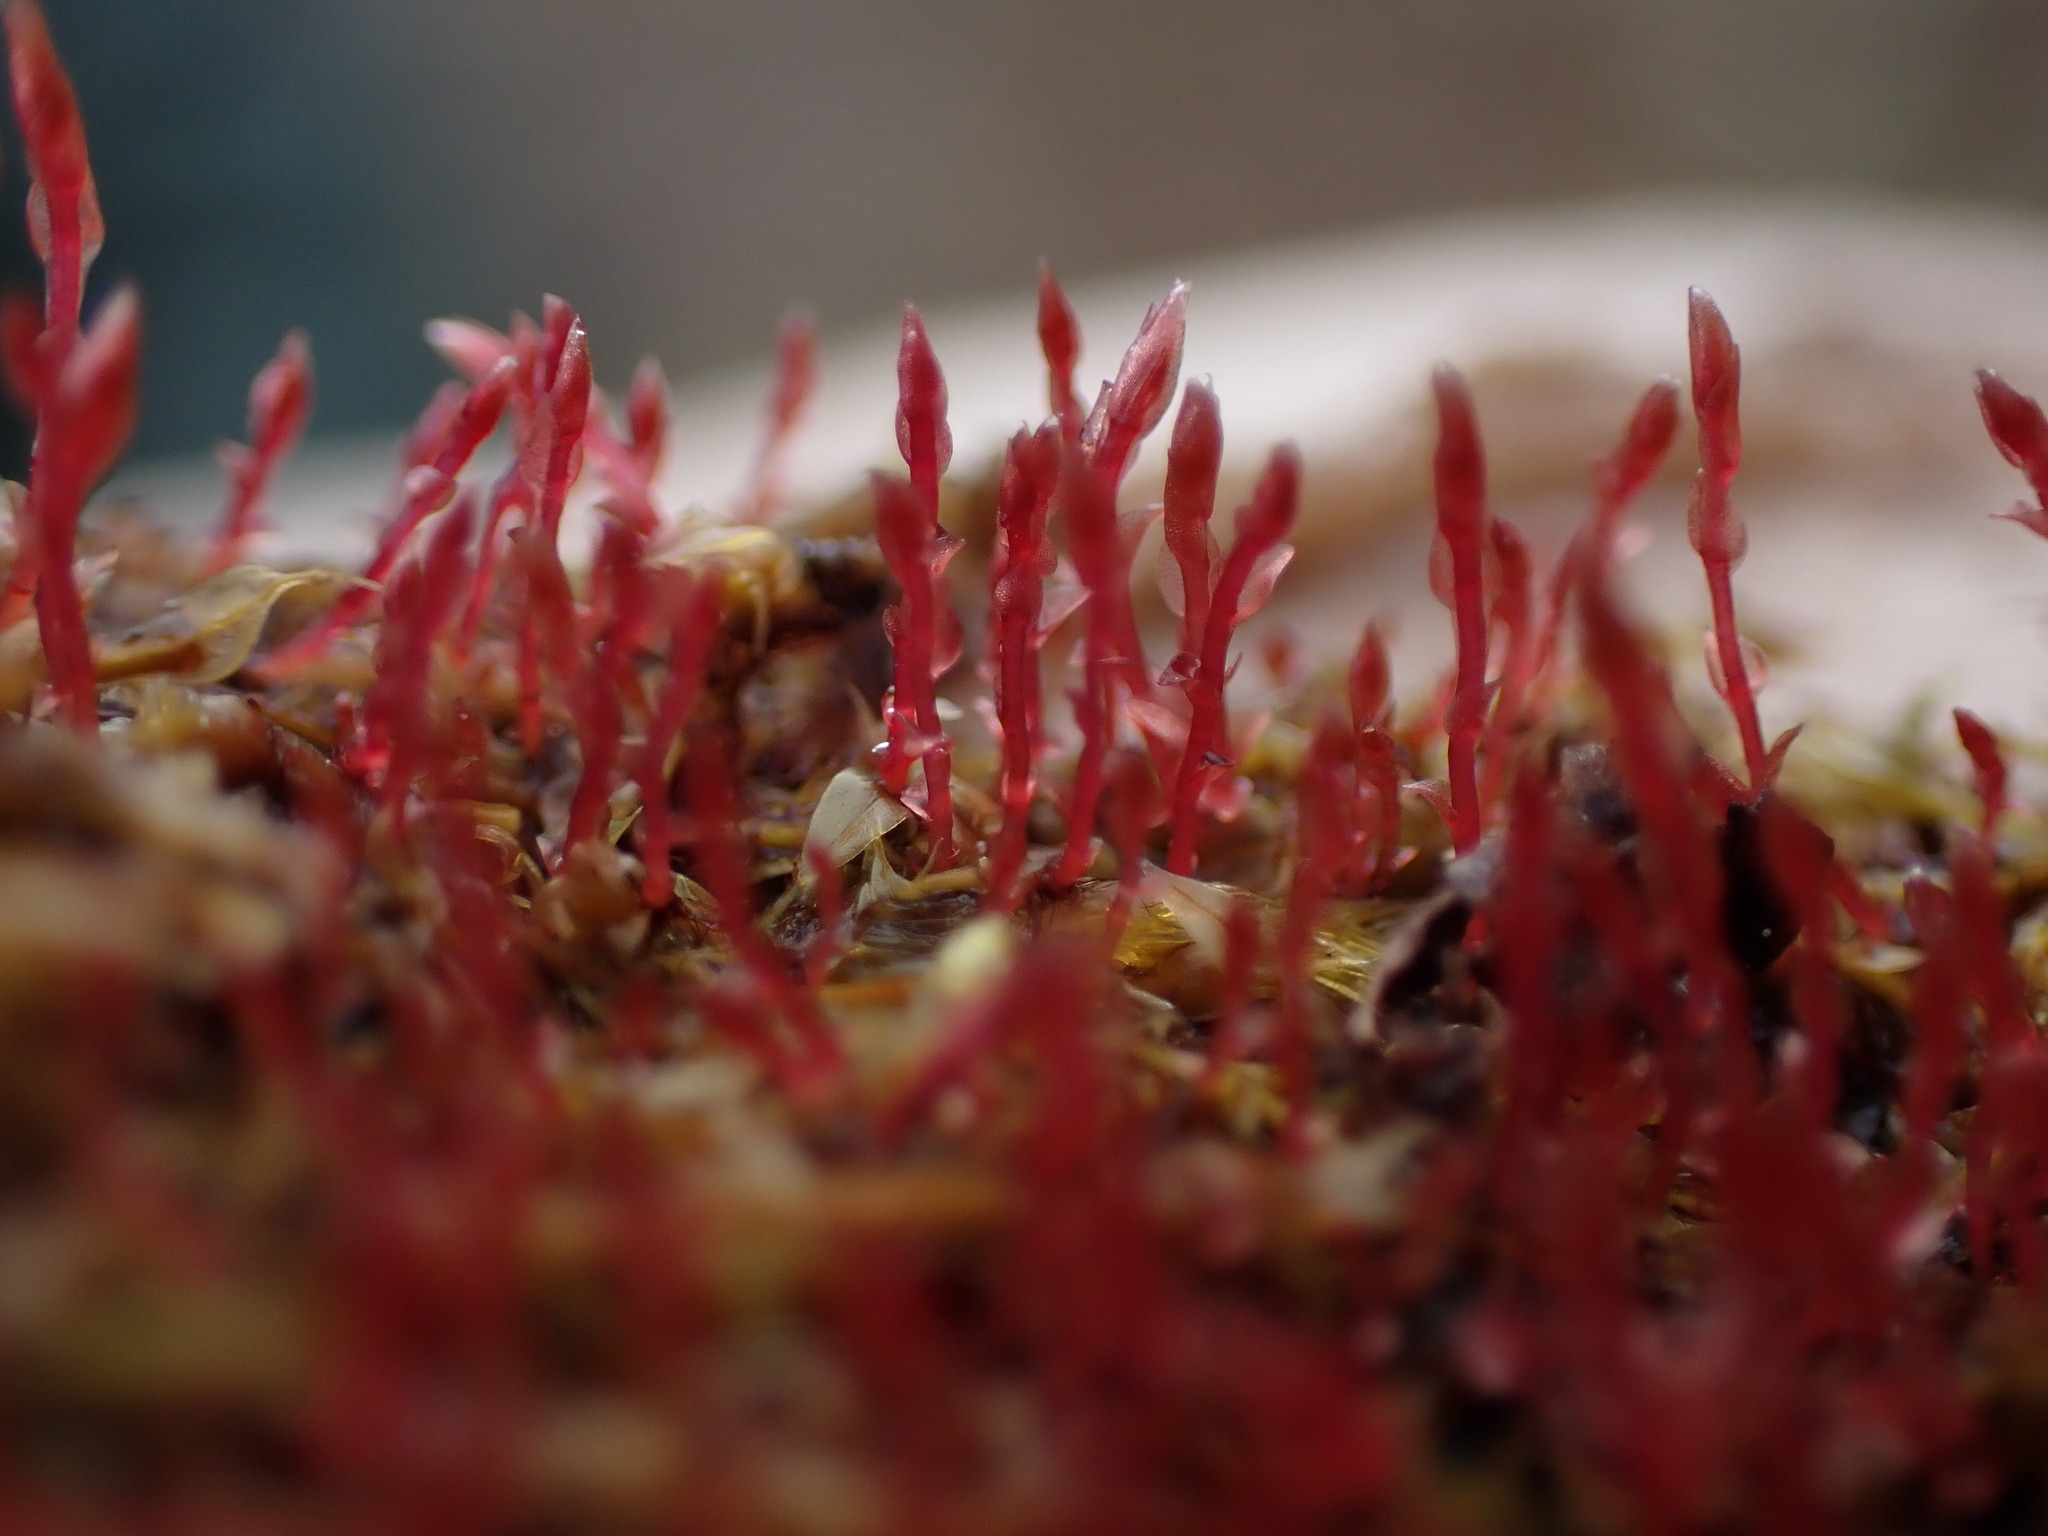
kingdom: Plantae
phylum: Bryophyta
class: Bryopsida
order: Bryales
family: Bryaceae
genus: Ptychostomum
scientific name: Ptychostomum weigelii
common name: Weigel's bryum moss
